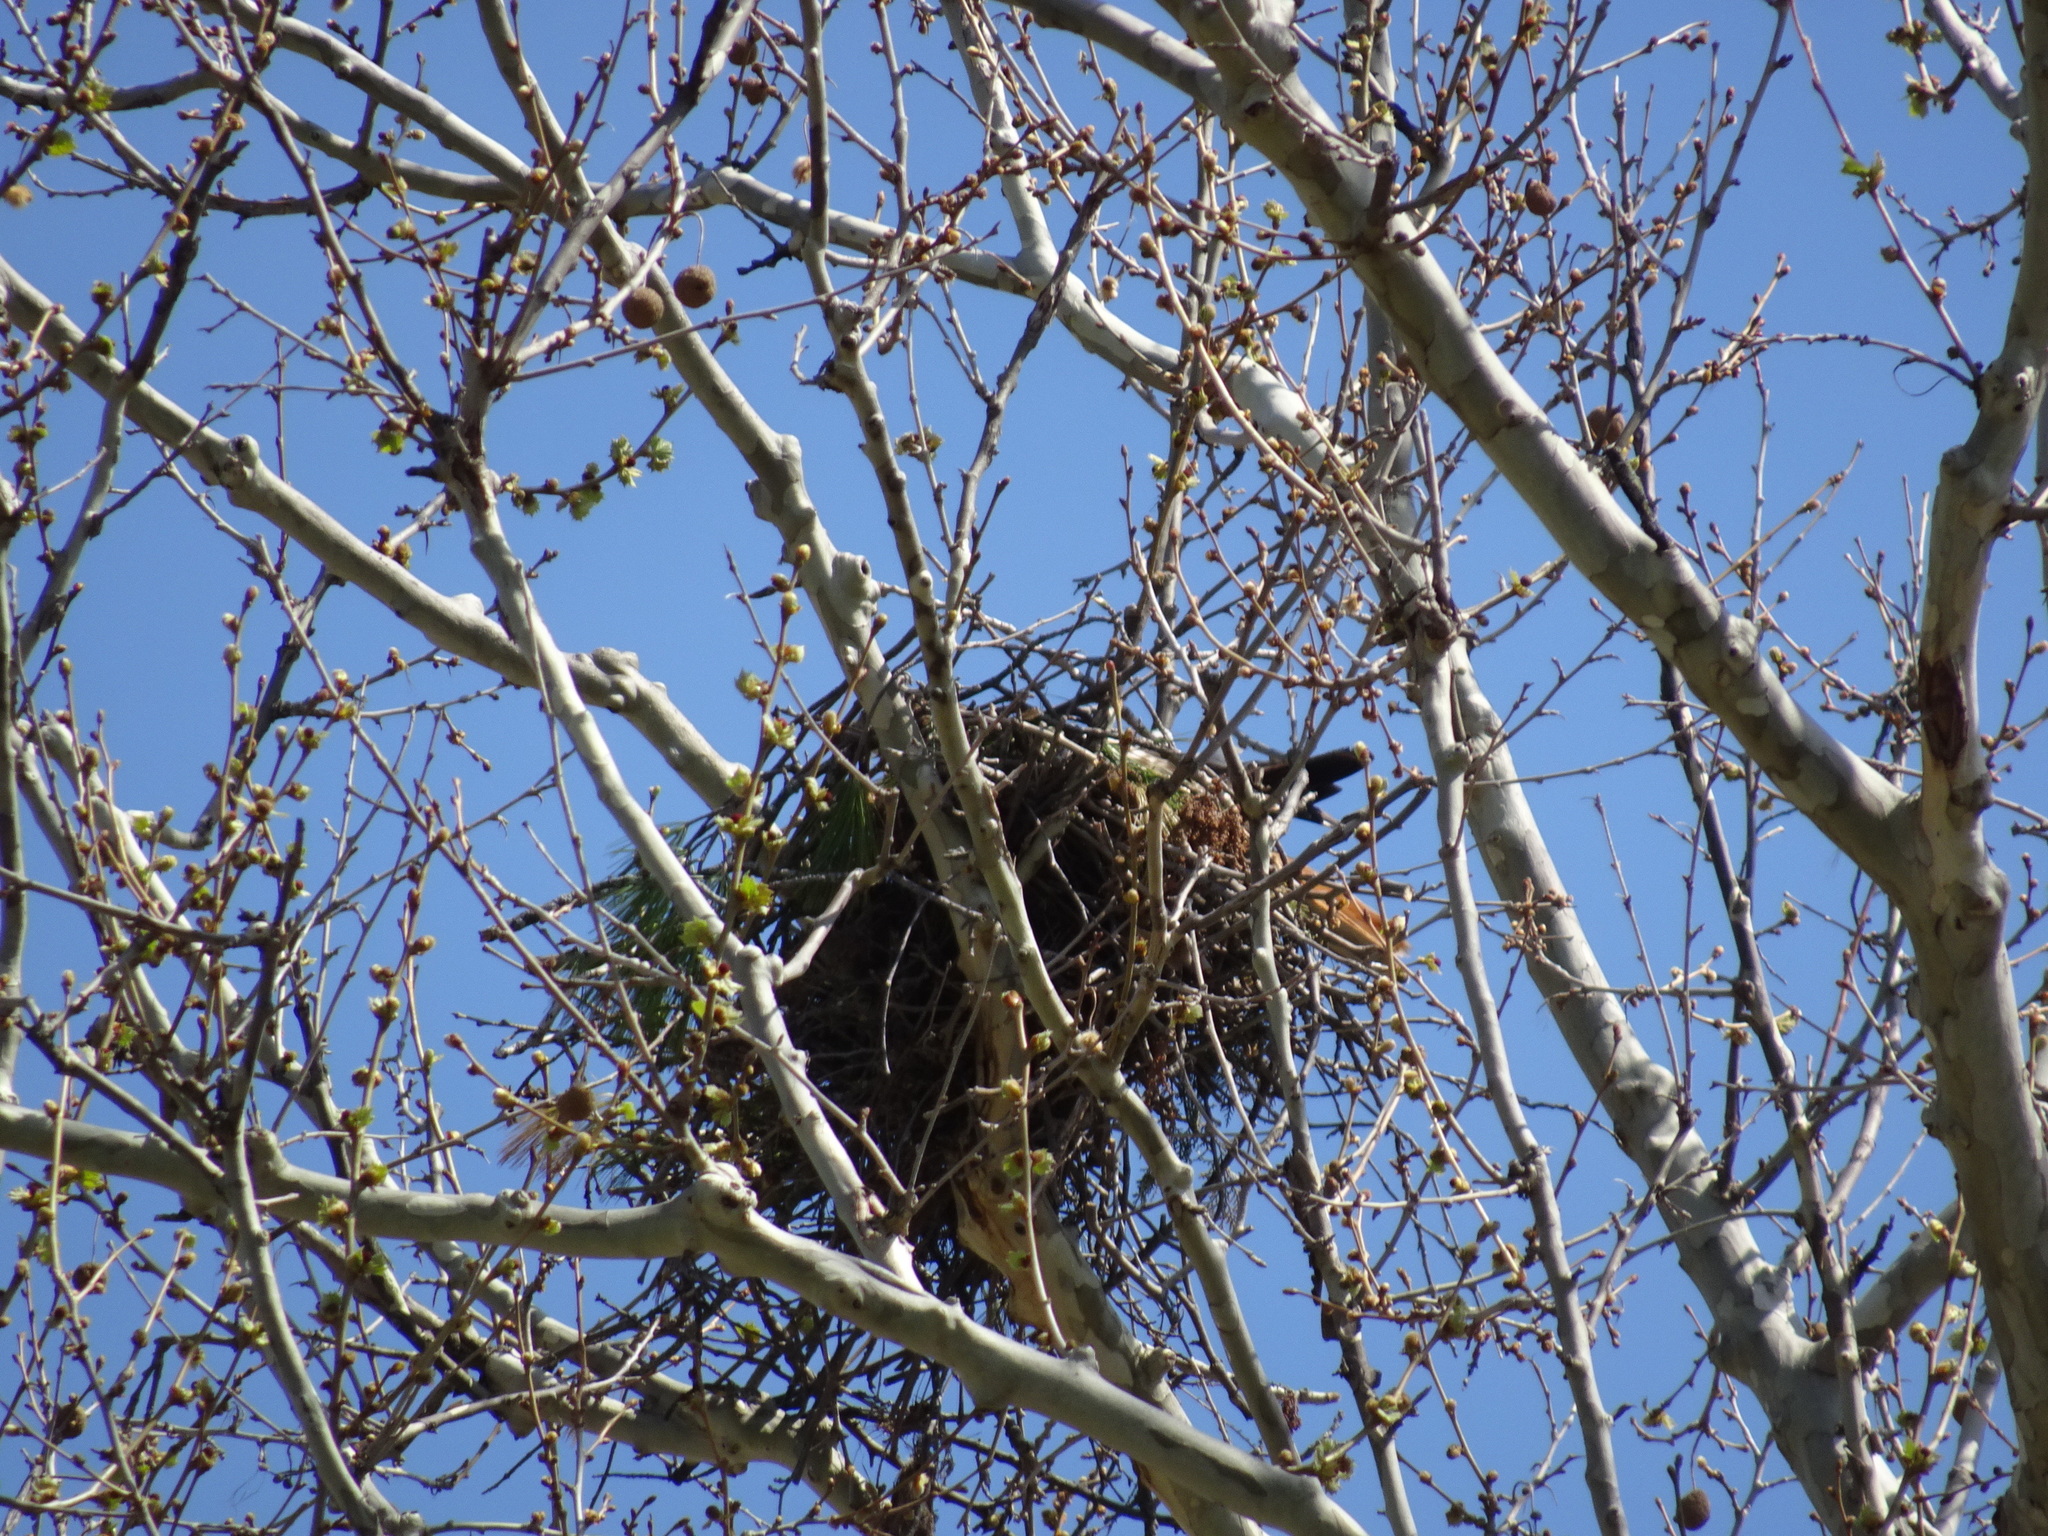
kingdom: Animalia
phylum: Chordata
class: Aves
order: Accipitriformes
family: Accipitridae
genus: Buteo
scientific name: Buteo jamaicensis
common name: Red-tailed hawk
